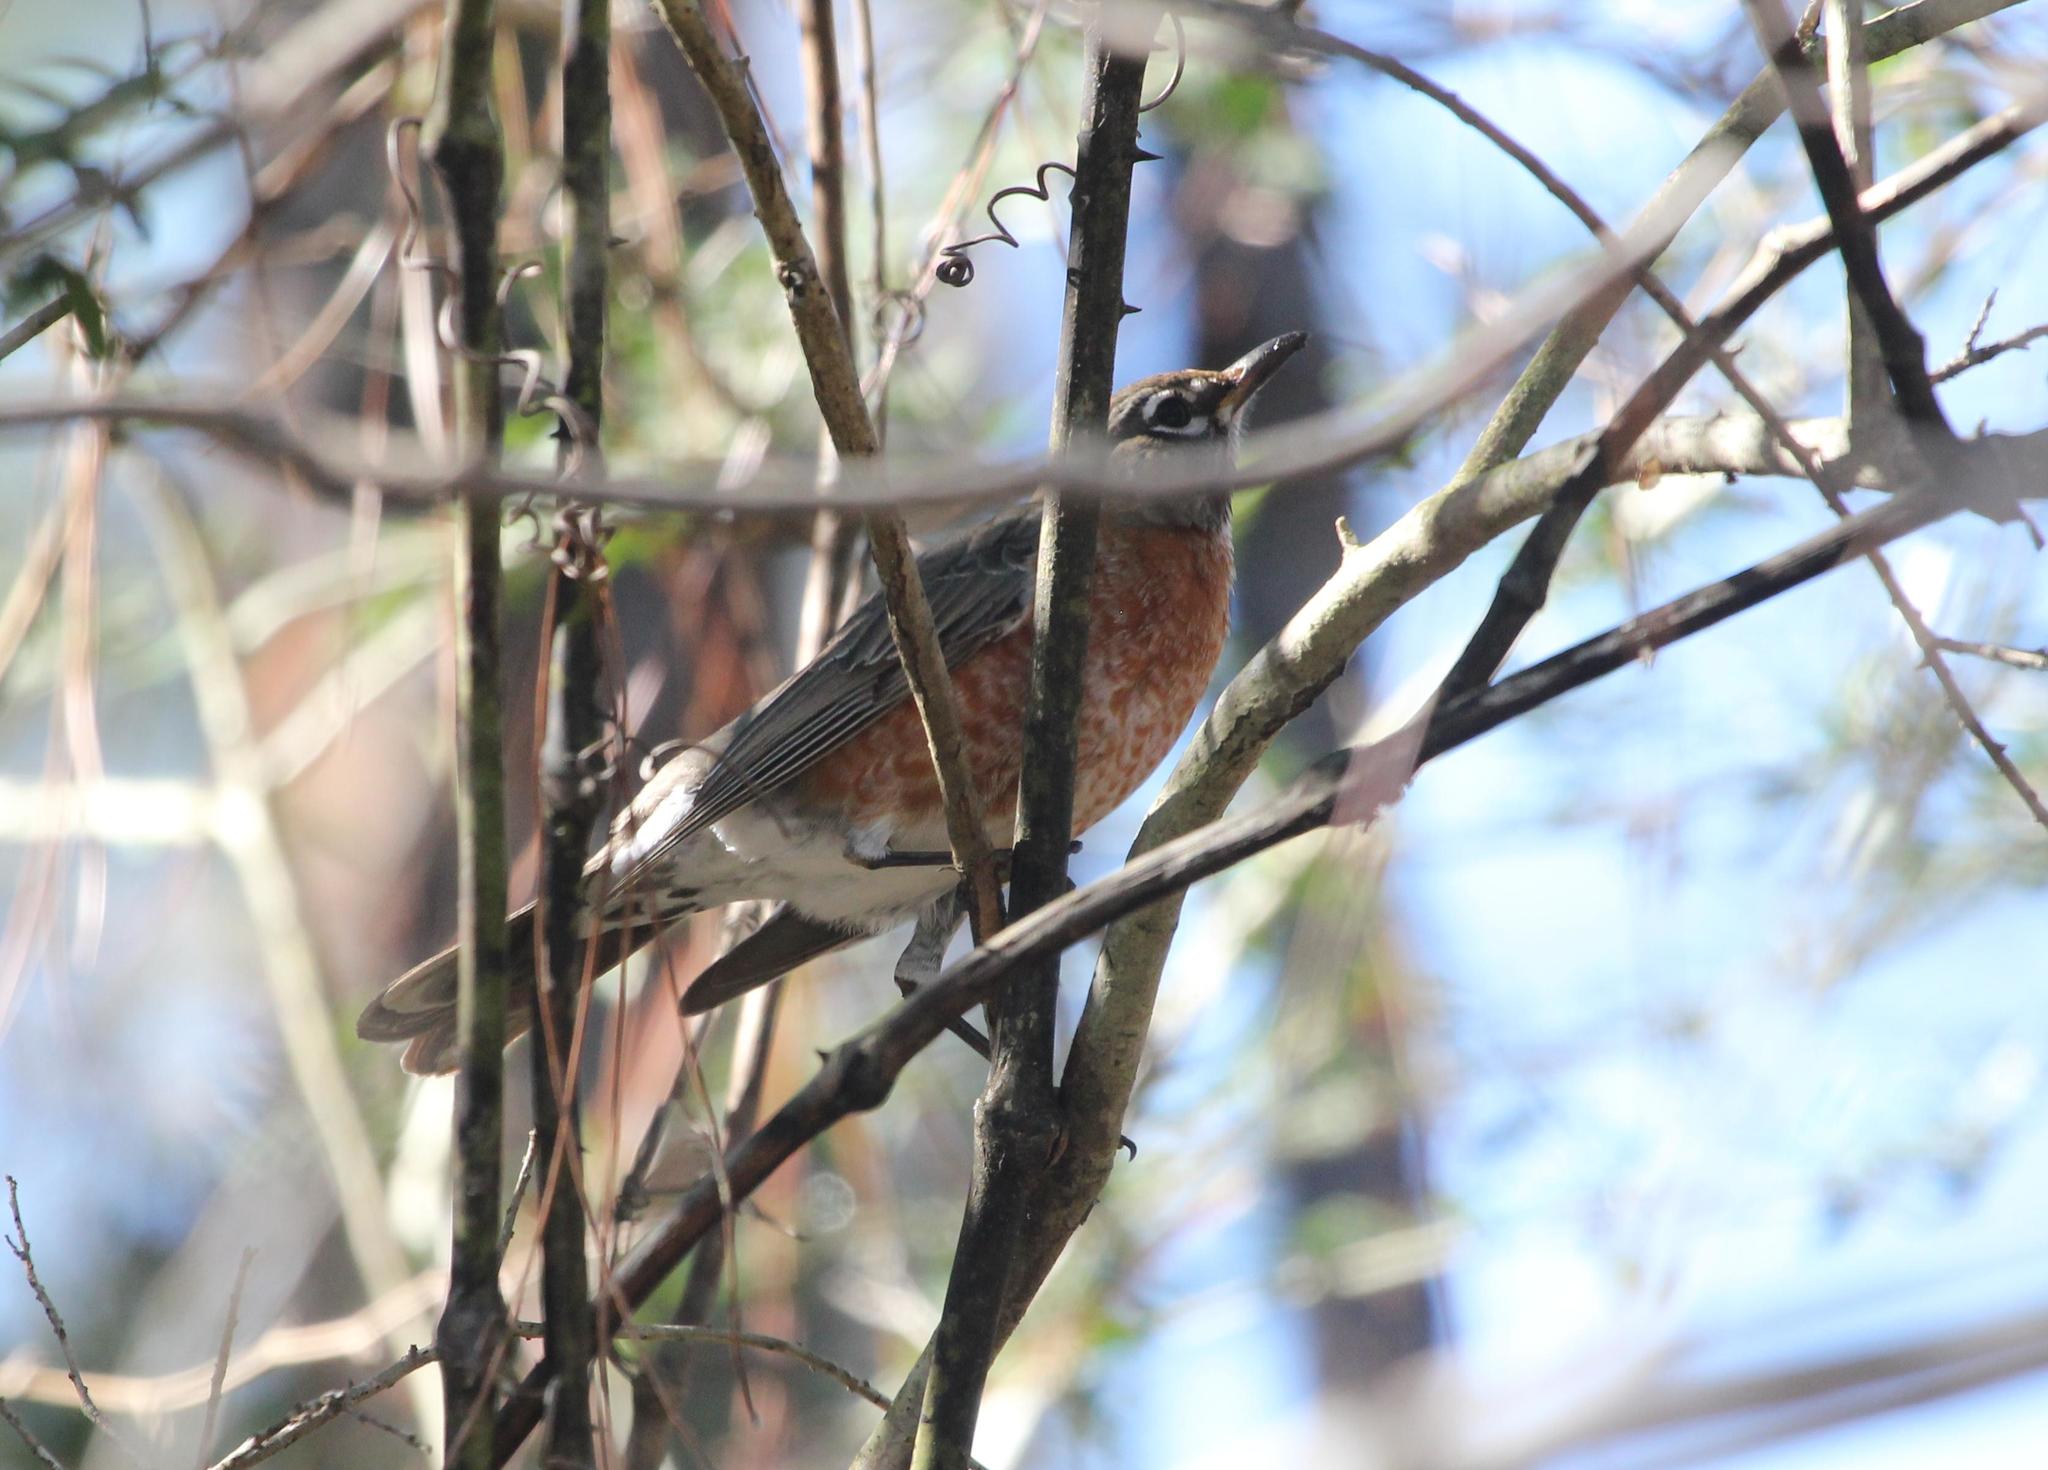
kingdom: Animalia
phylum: Chordata
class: Aves
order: Passeriformes
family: Turdidae
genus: Turdus
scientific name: Turdus migratorius
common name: American robin
